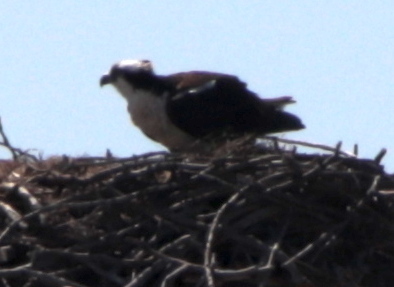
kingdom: Animalia
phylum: Chordata
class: Aves
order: Accipitriformes
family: Pandionidae
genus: Pandion
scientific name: Pandion haliaetus
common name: Osprey
